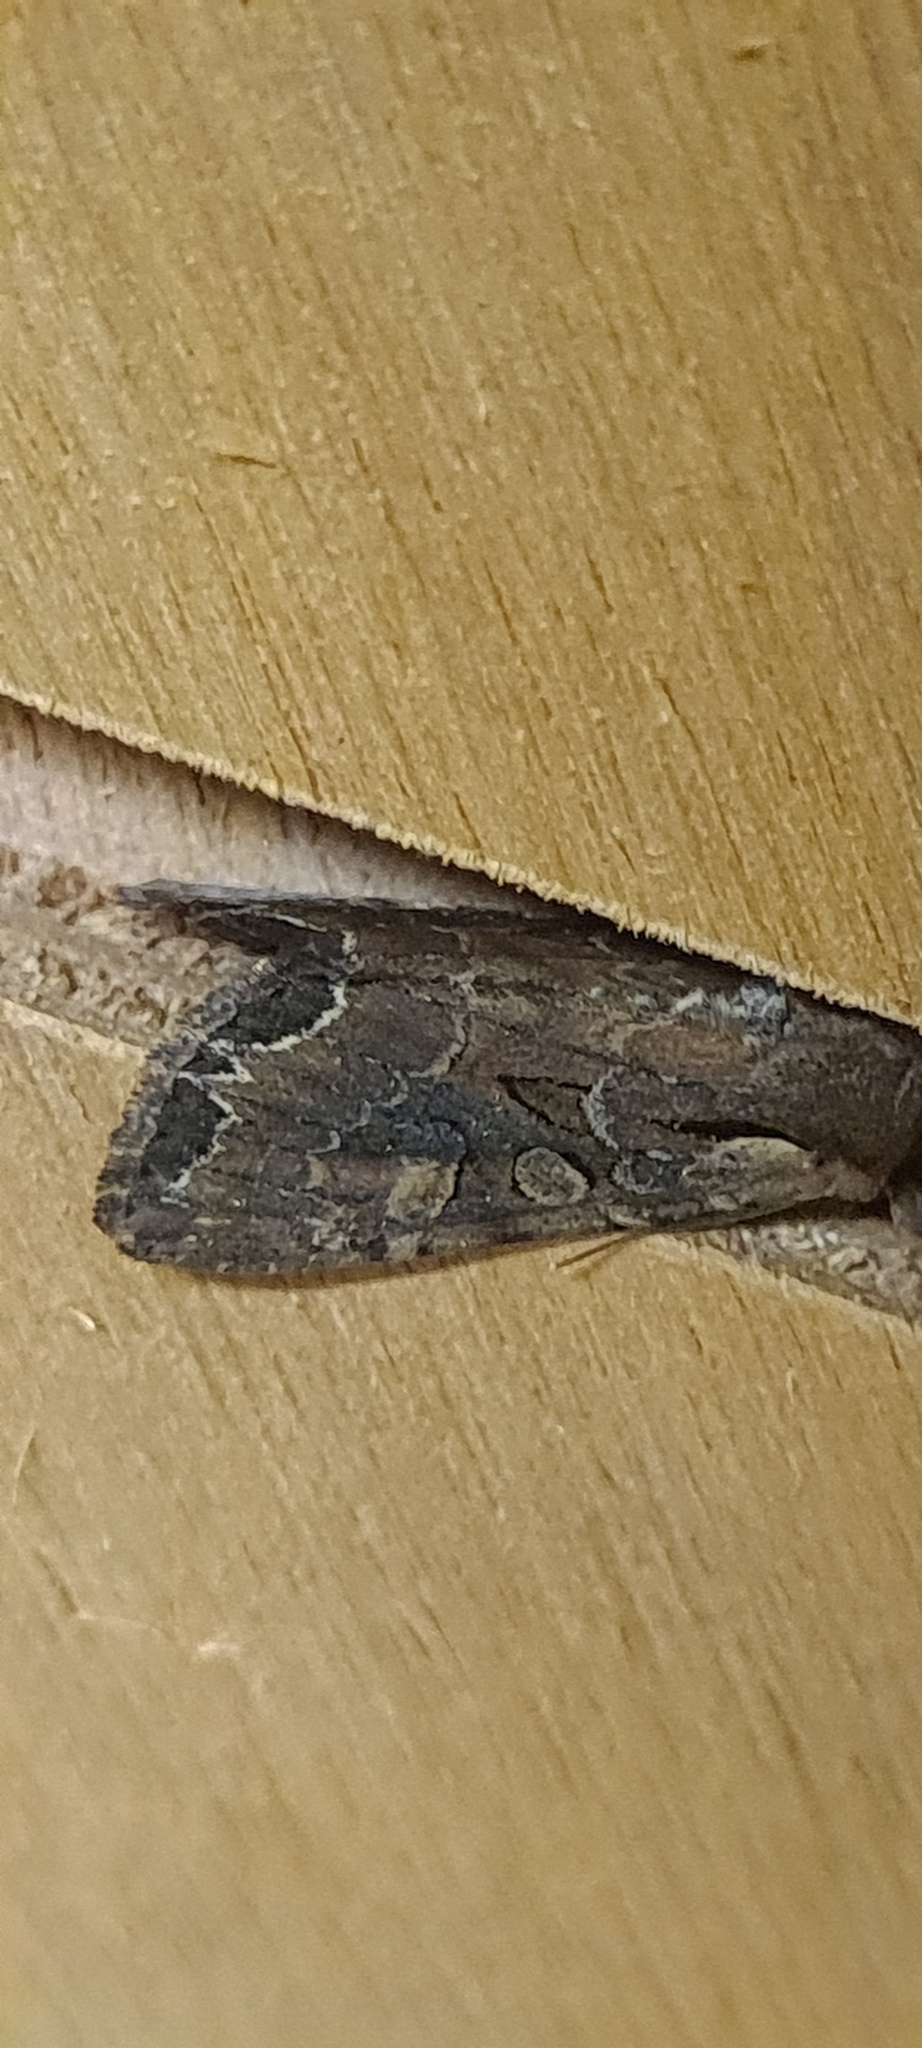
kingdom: Animalia
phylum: Arthropoda
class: Insecta
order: Lepidoptera
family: Noctuidae
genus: Lacanobia
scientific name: Lacanobia suasa
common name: Dog's tooth
